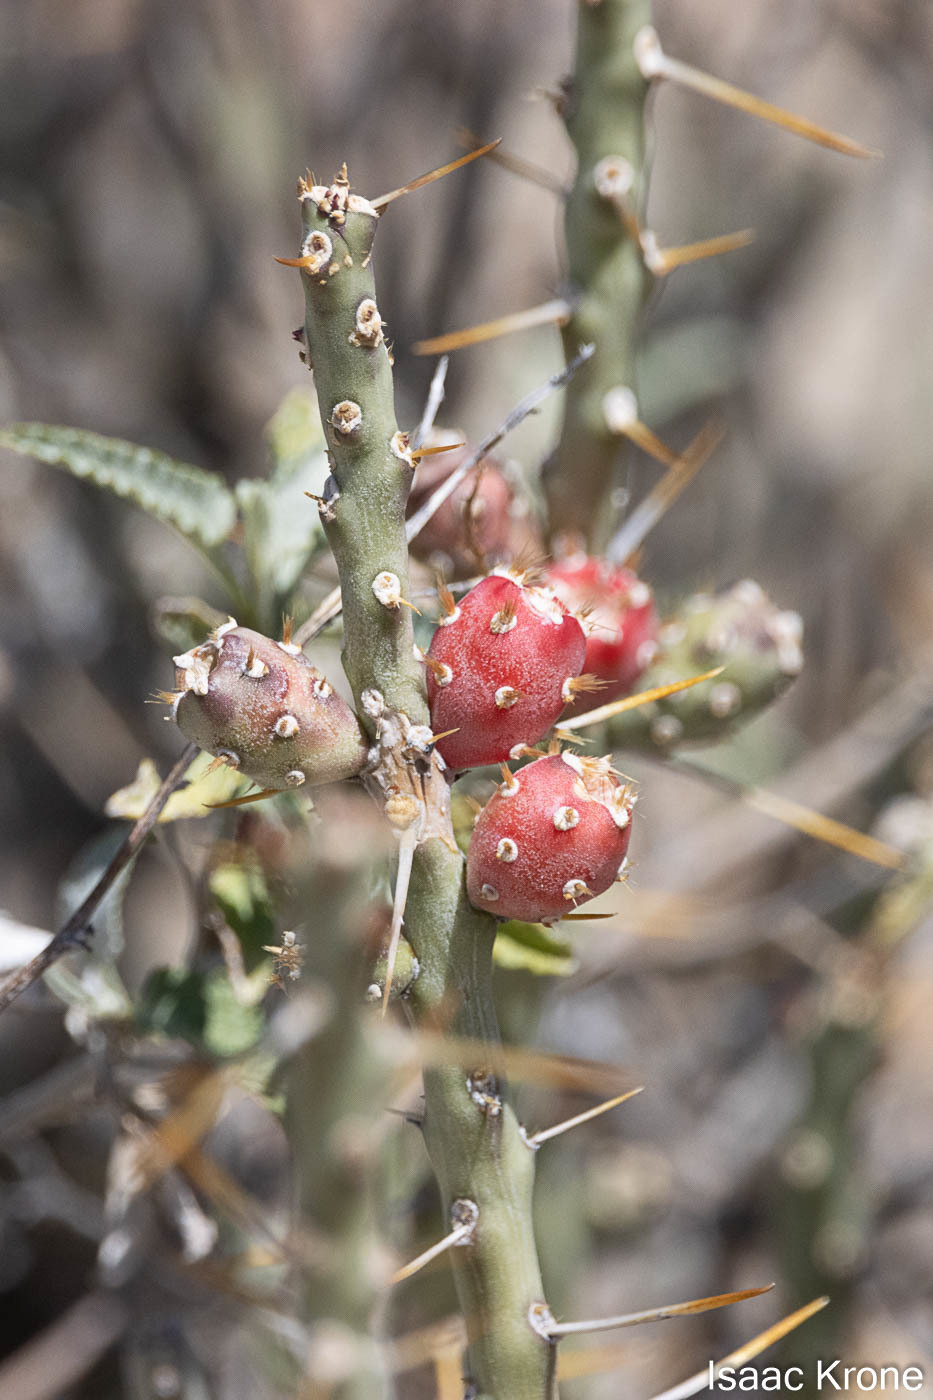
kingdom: Plantae
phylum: Tracheophyta
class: Magnoliopsida
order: Caryophyllales
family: Cactaceae
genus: Cylindropuntia
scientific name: Cylindropuntia leptocaulis
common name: Christmas cactus
